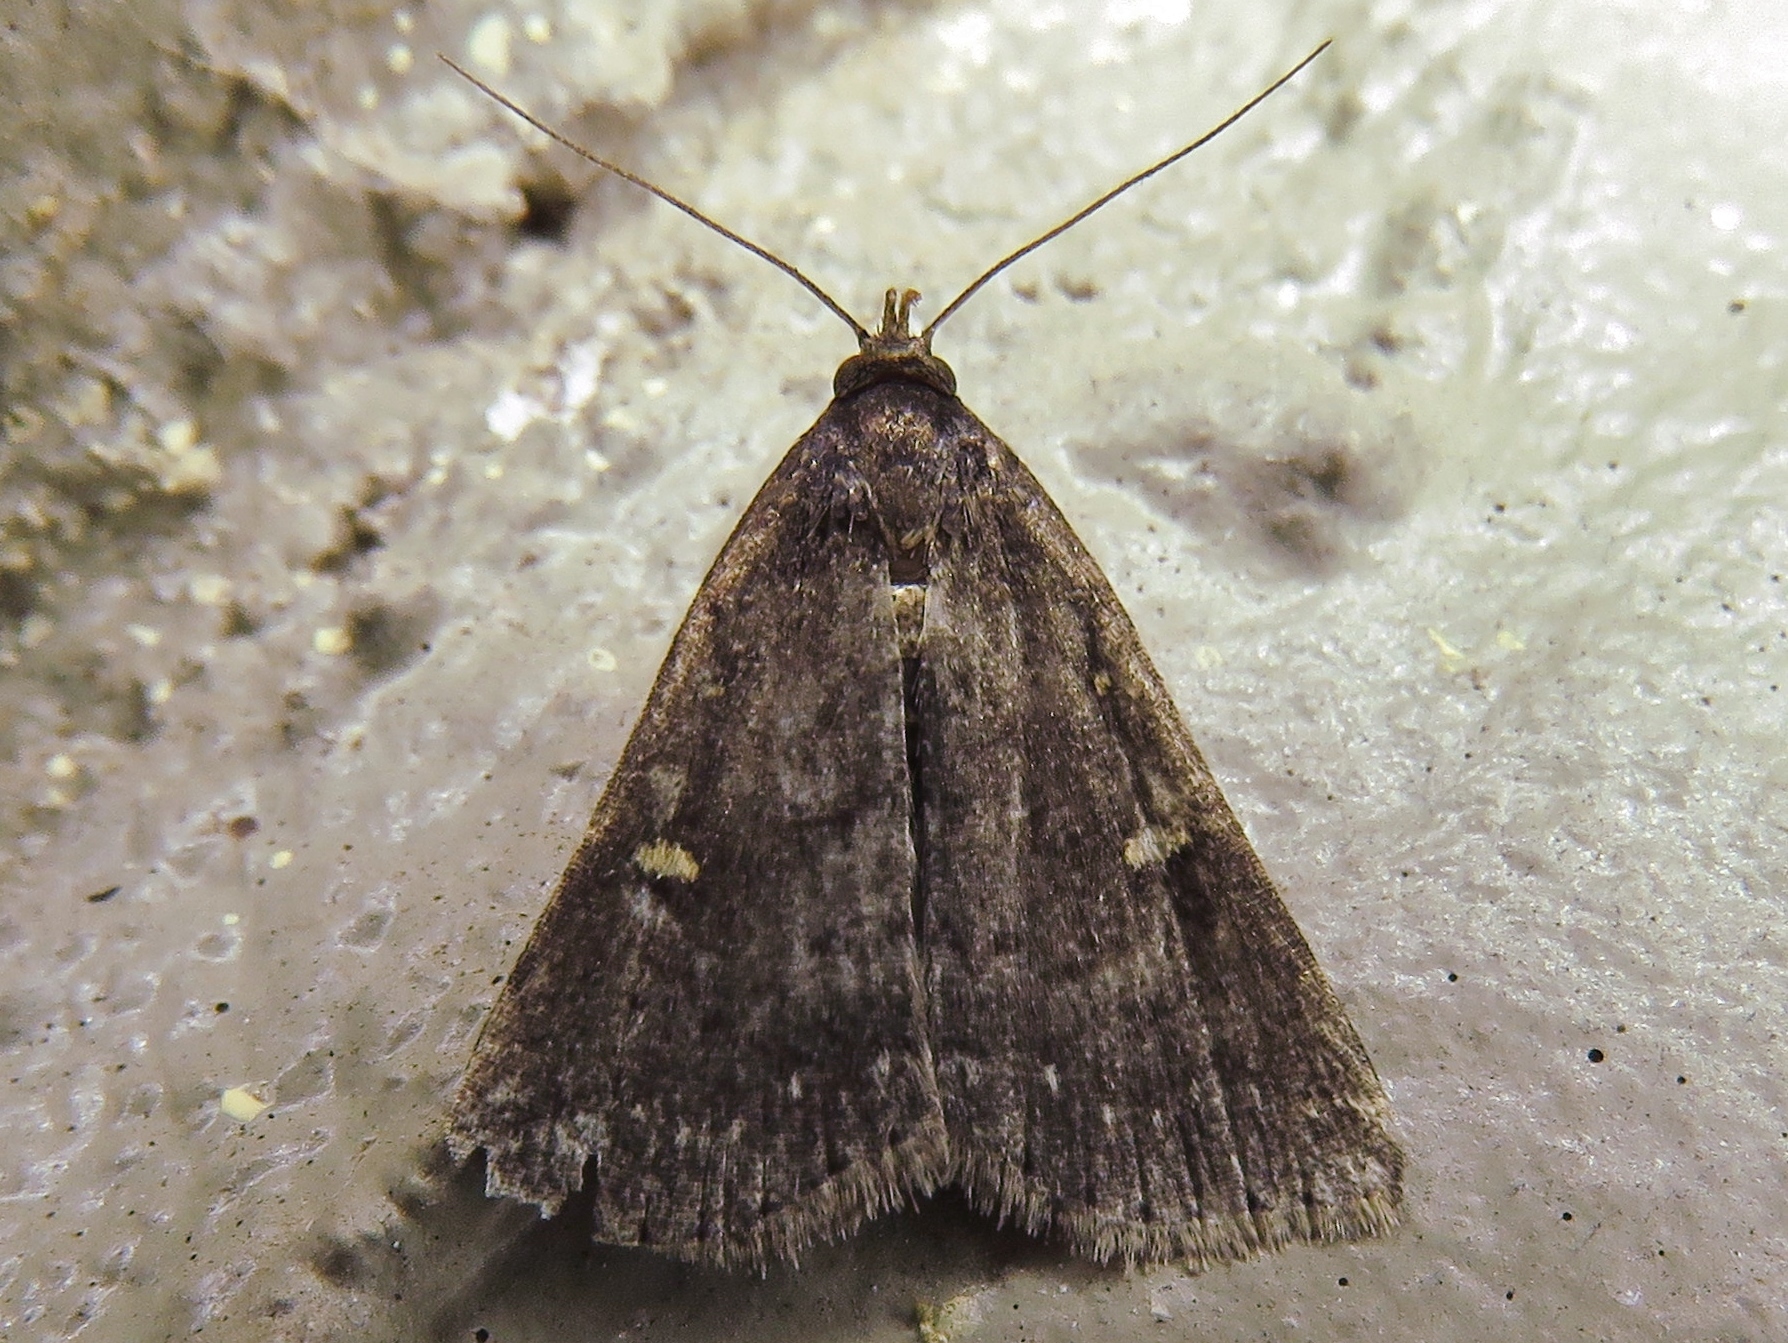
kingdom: Animalia
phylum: Arthropoda
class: Insecta
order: Lepidoptera
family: Erebidae
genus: Tetanolita
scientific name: Tetanolita mynesalis
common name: Smoky tetanolita moth
